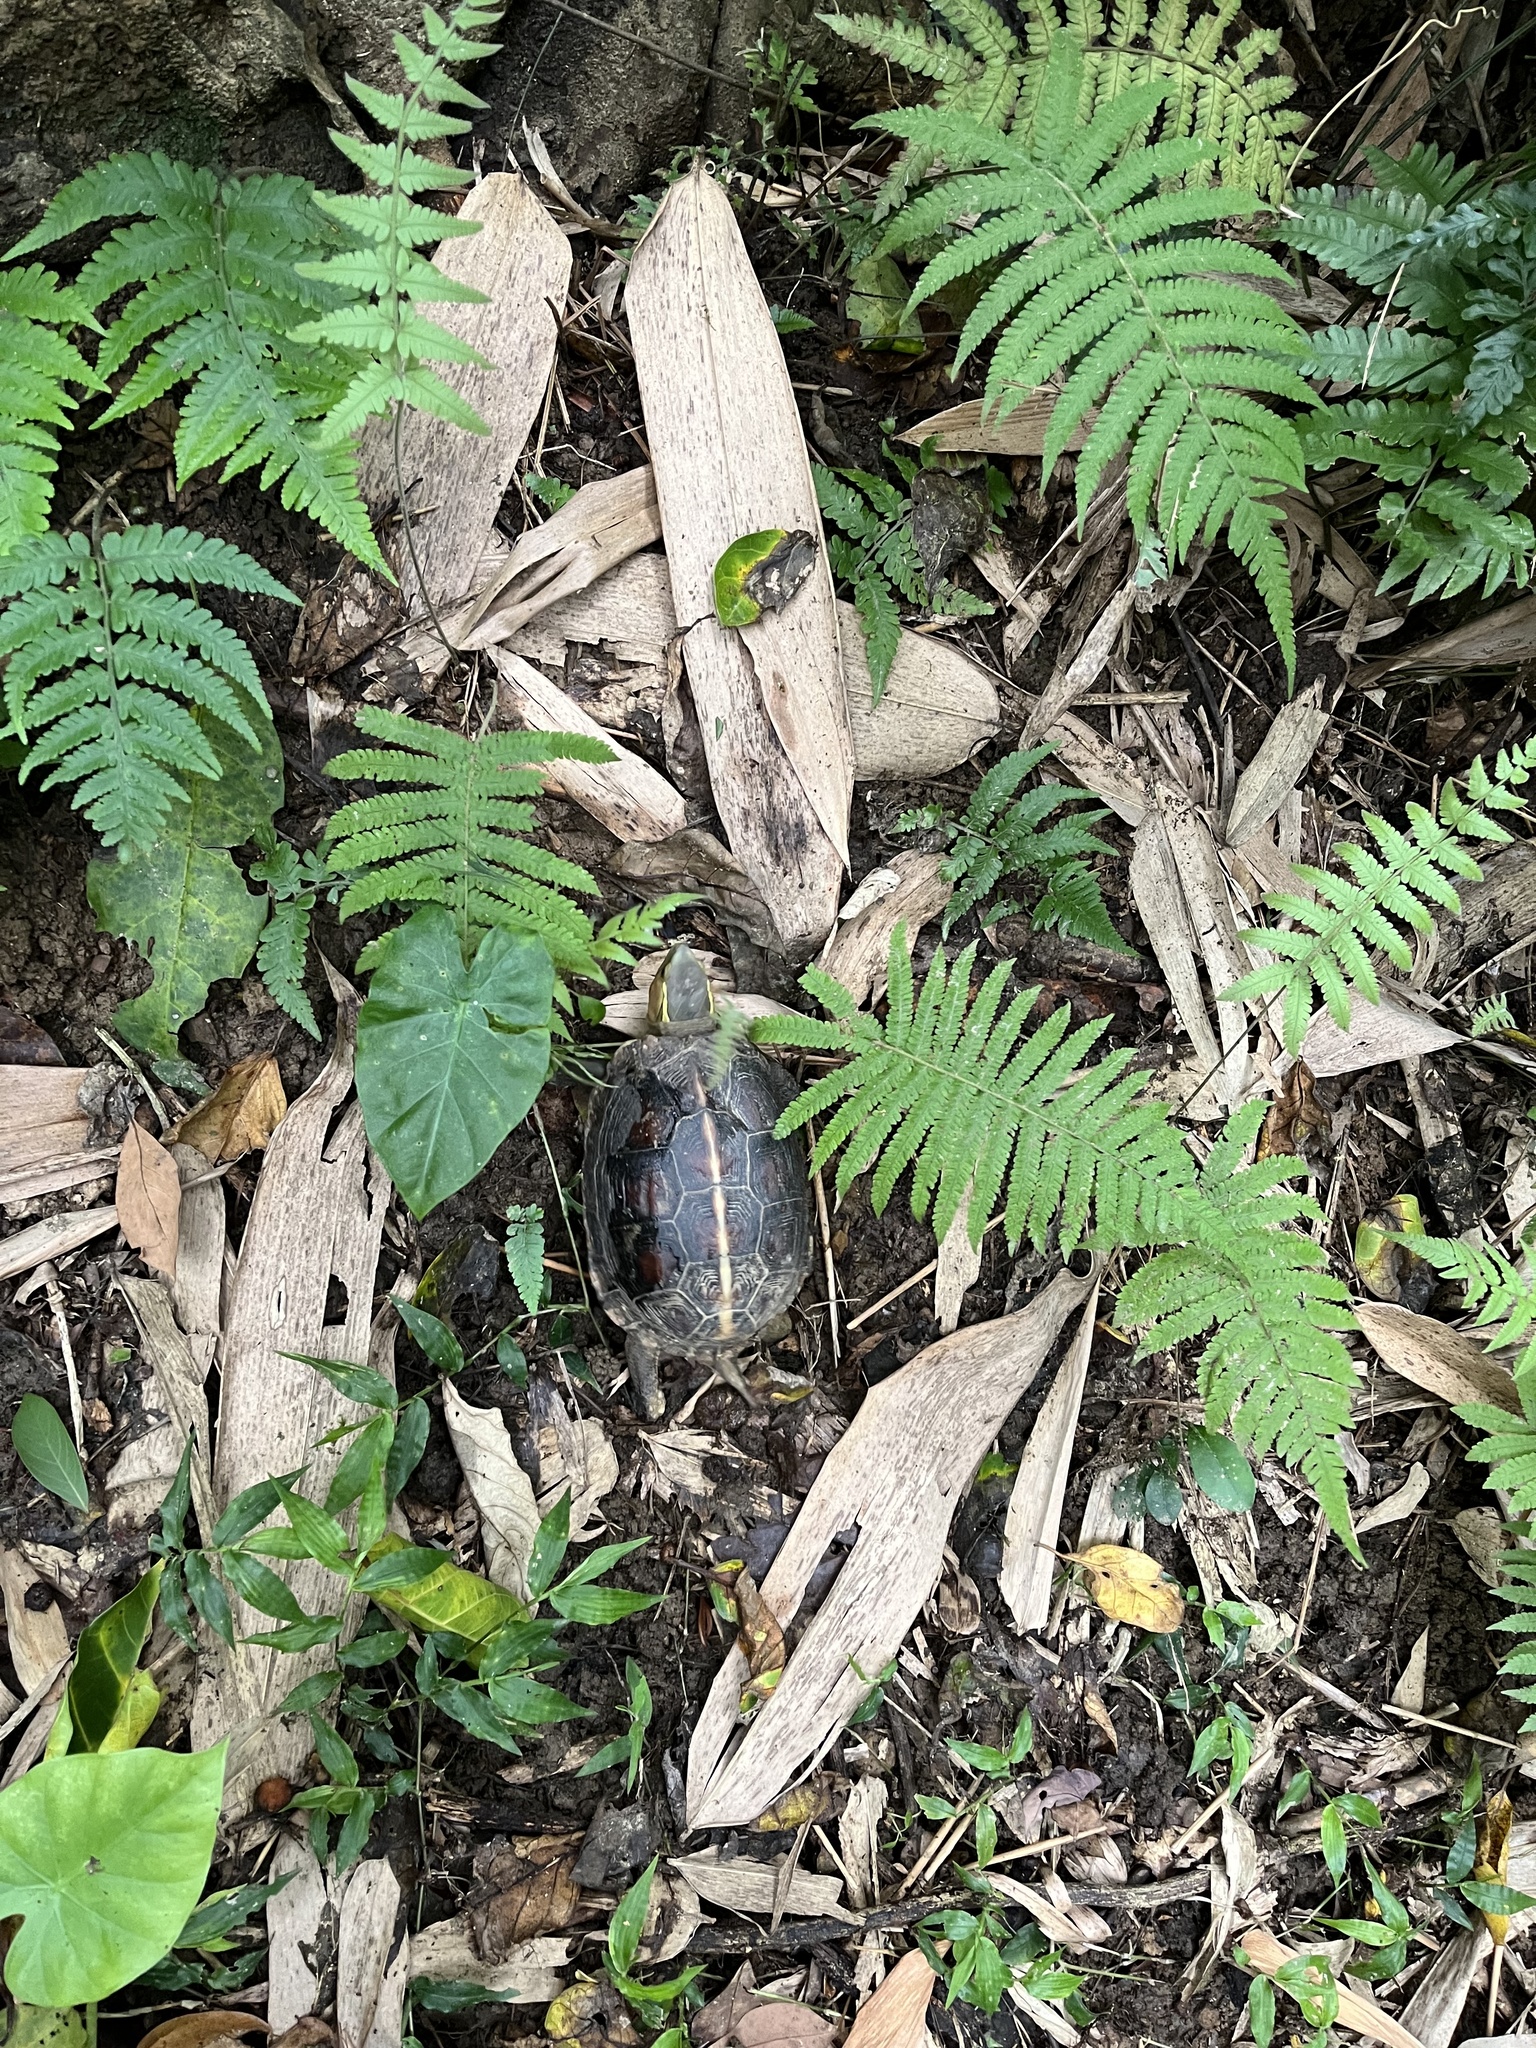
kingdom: Animalia
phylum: Chordata
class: Testudines
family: Geoemydidae
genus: Cuora
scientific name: Cuora flavomarginata
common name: Yellow-margined box turtle
